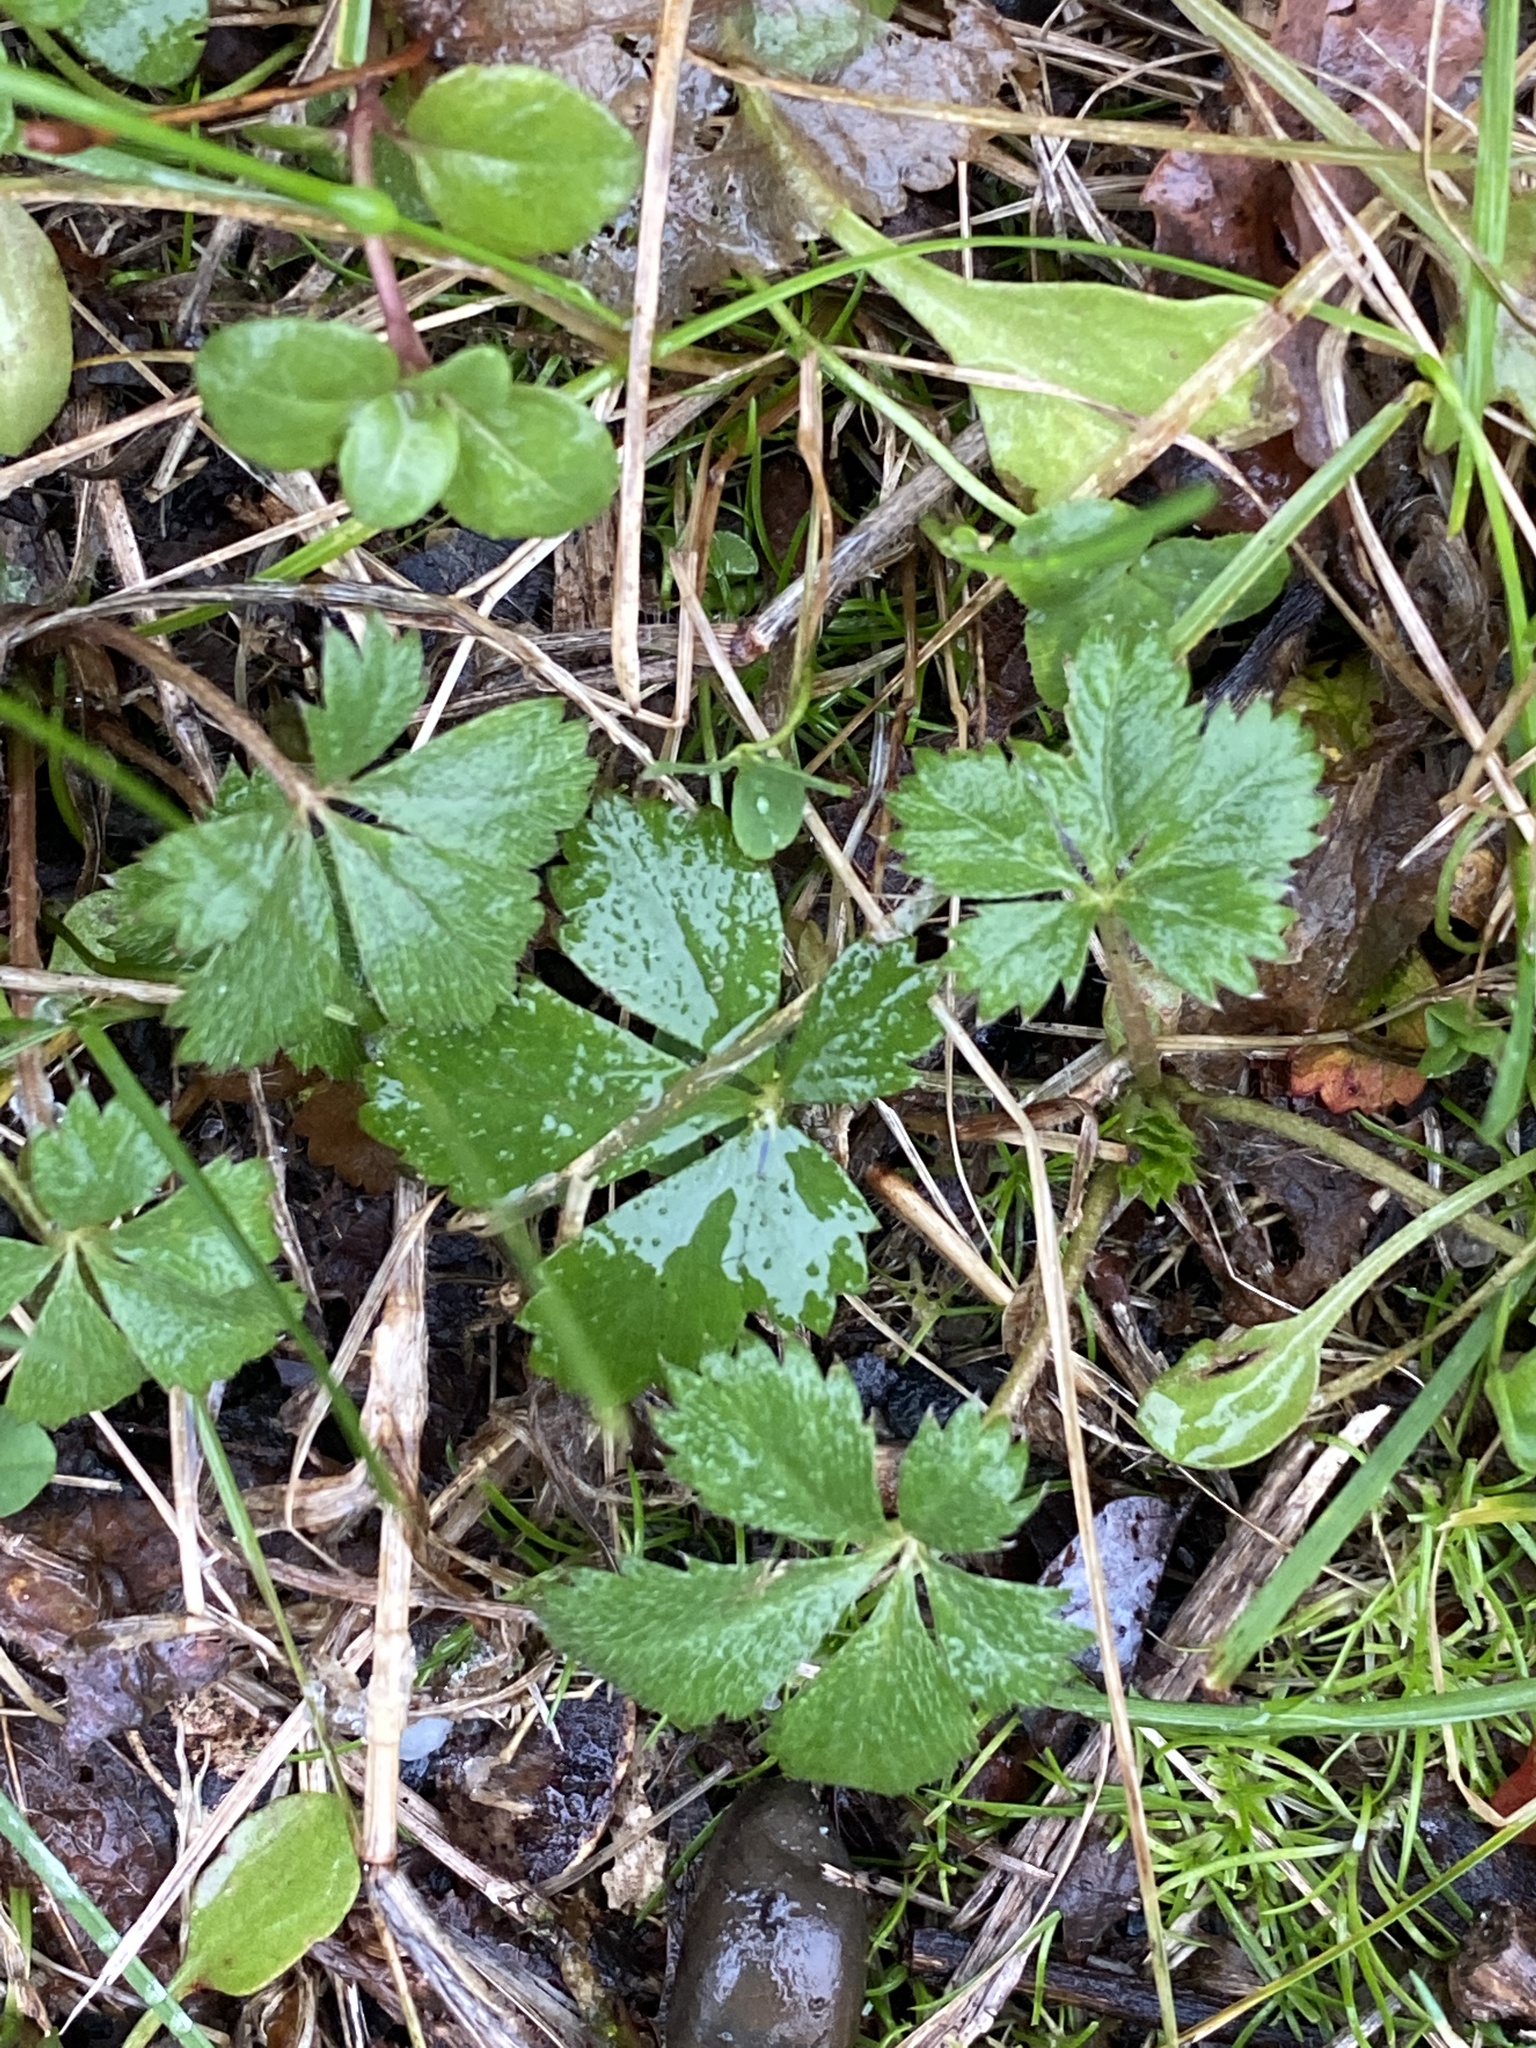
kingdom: Plantae
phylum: Tracheophyta
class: Magnoliopsida
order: Rosales
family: Rosaceae
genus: Potentilla
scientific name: Potentilla canadensis
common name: Canada cinquefoil
